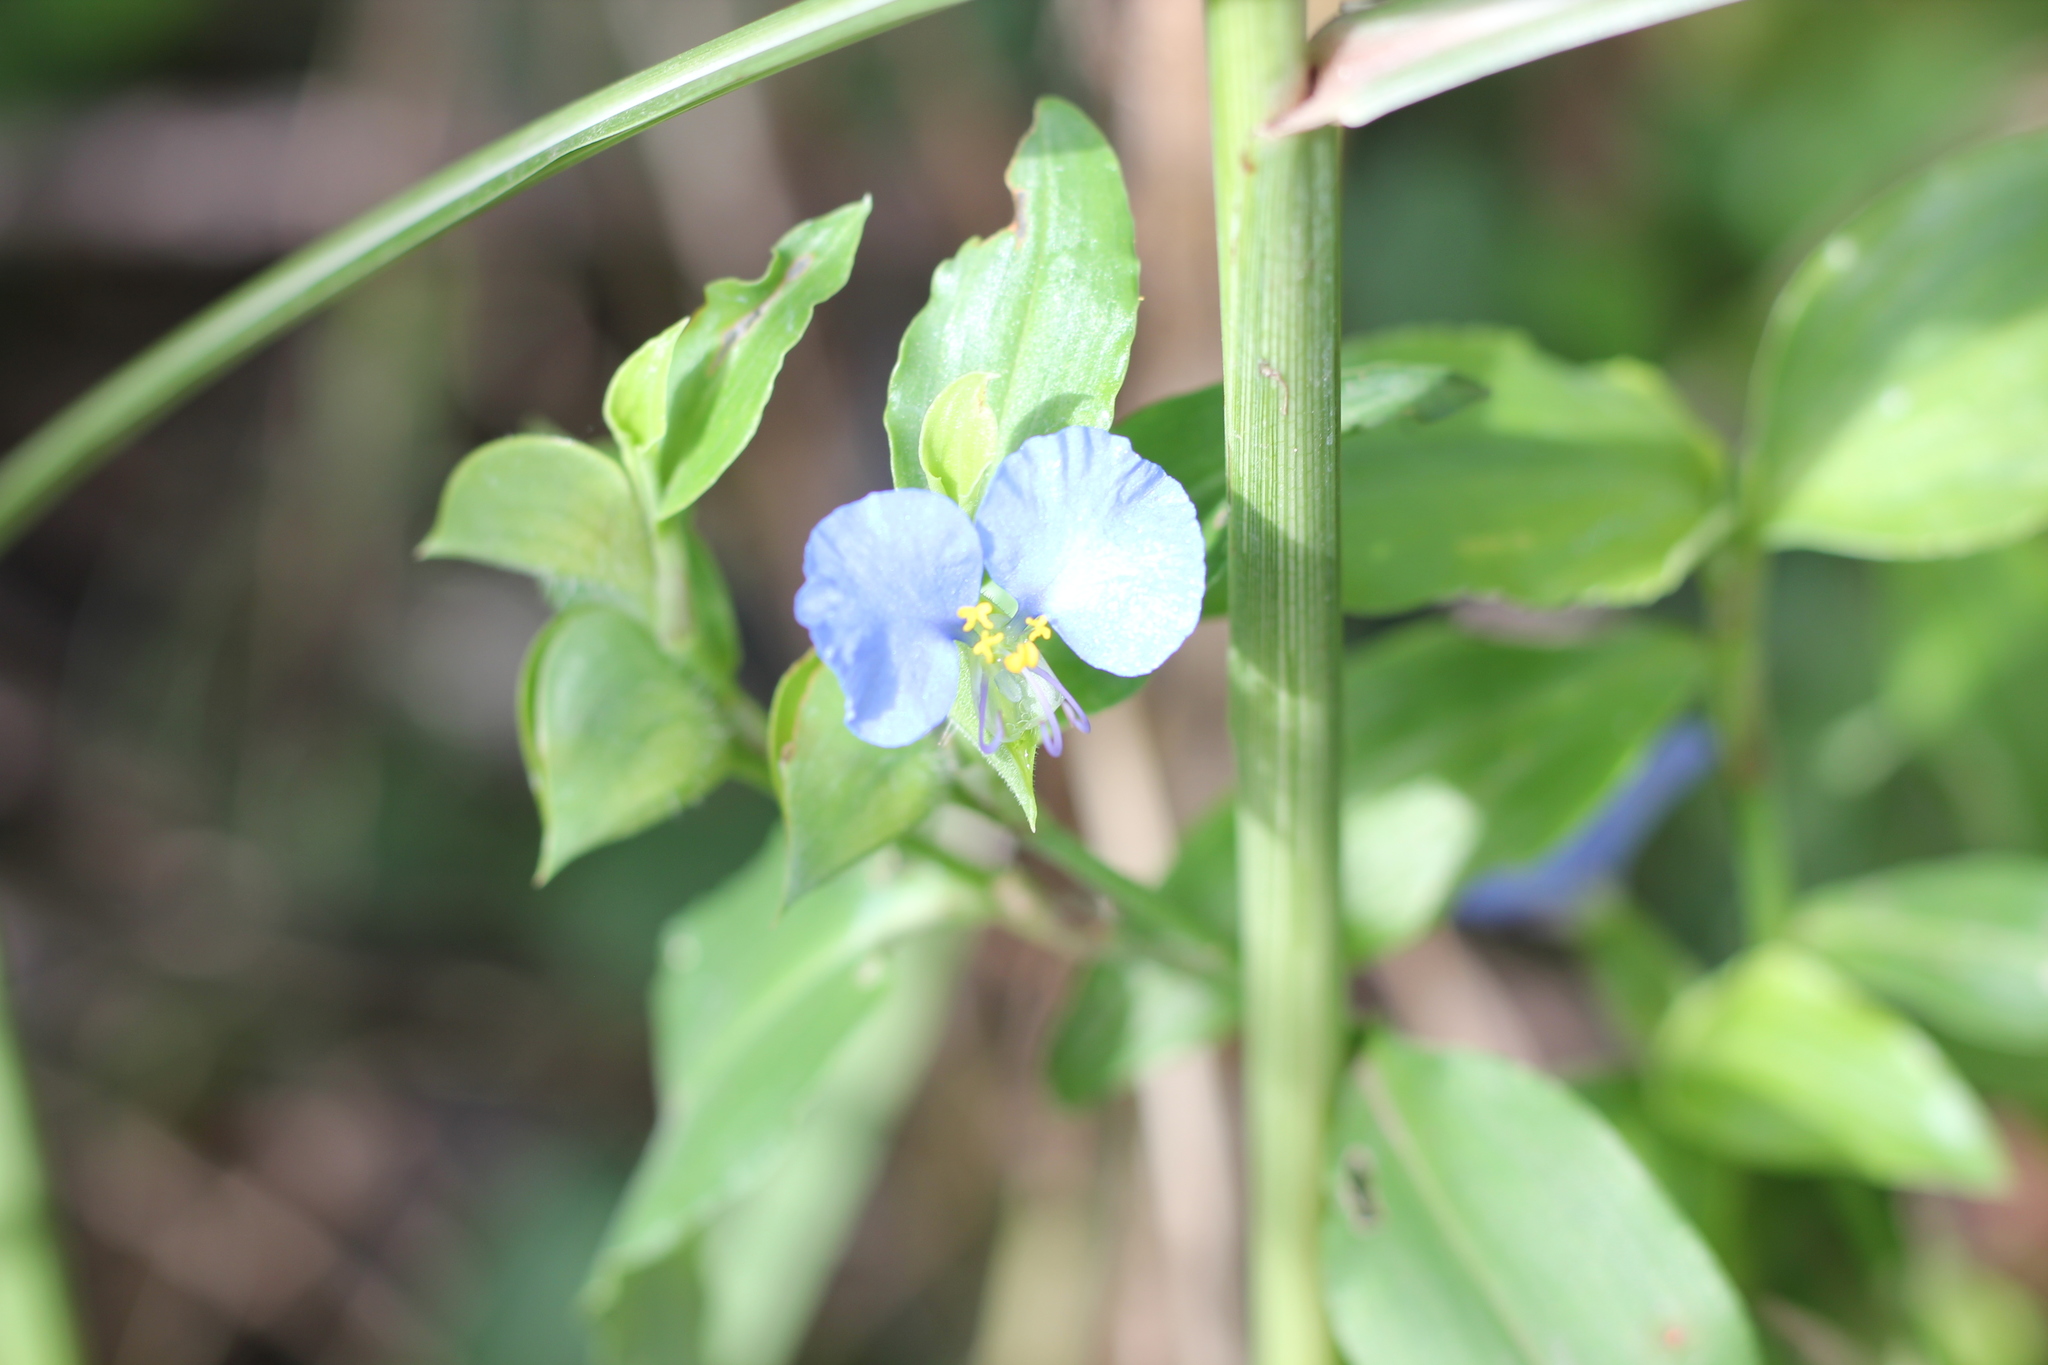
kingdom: Plantae
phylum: Tracheophyta
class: Liliopsida
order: Commelinales
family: Commelinaceae
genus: Commelina
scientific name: Commelina erecta
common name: Blousel blommetjie
